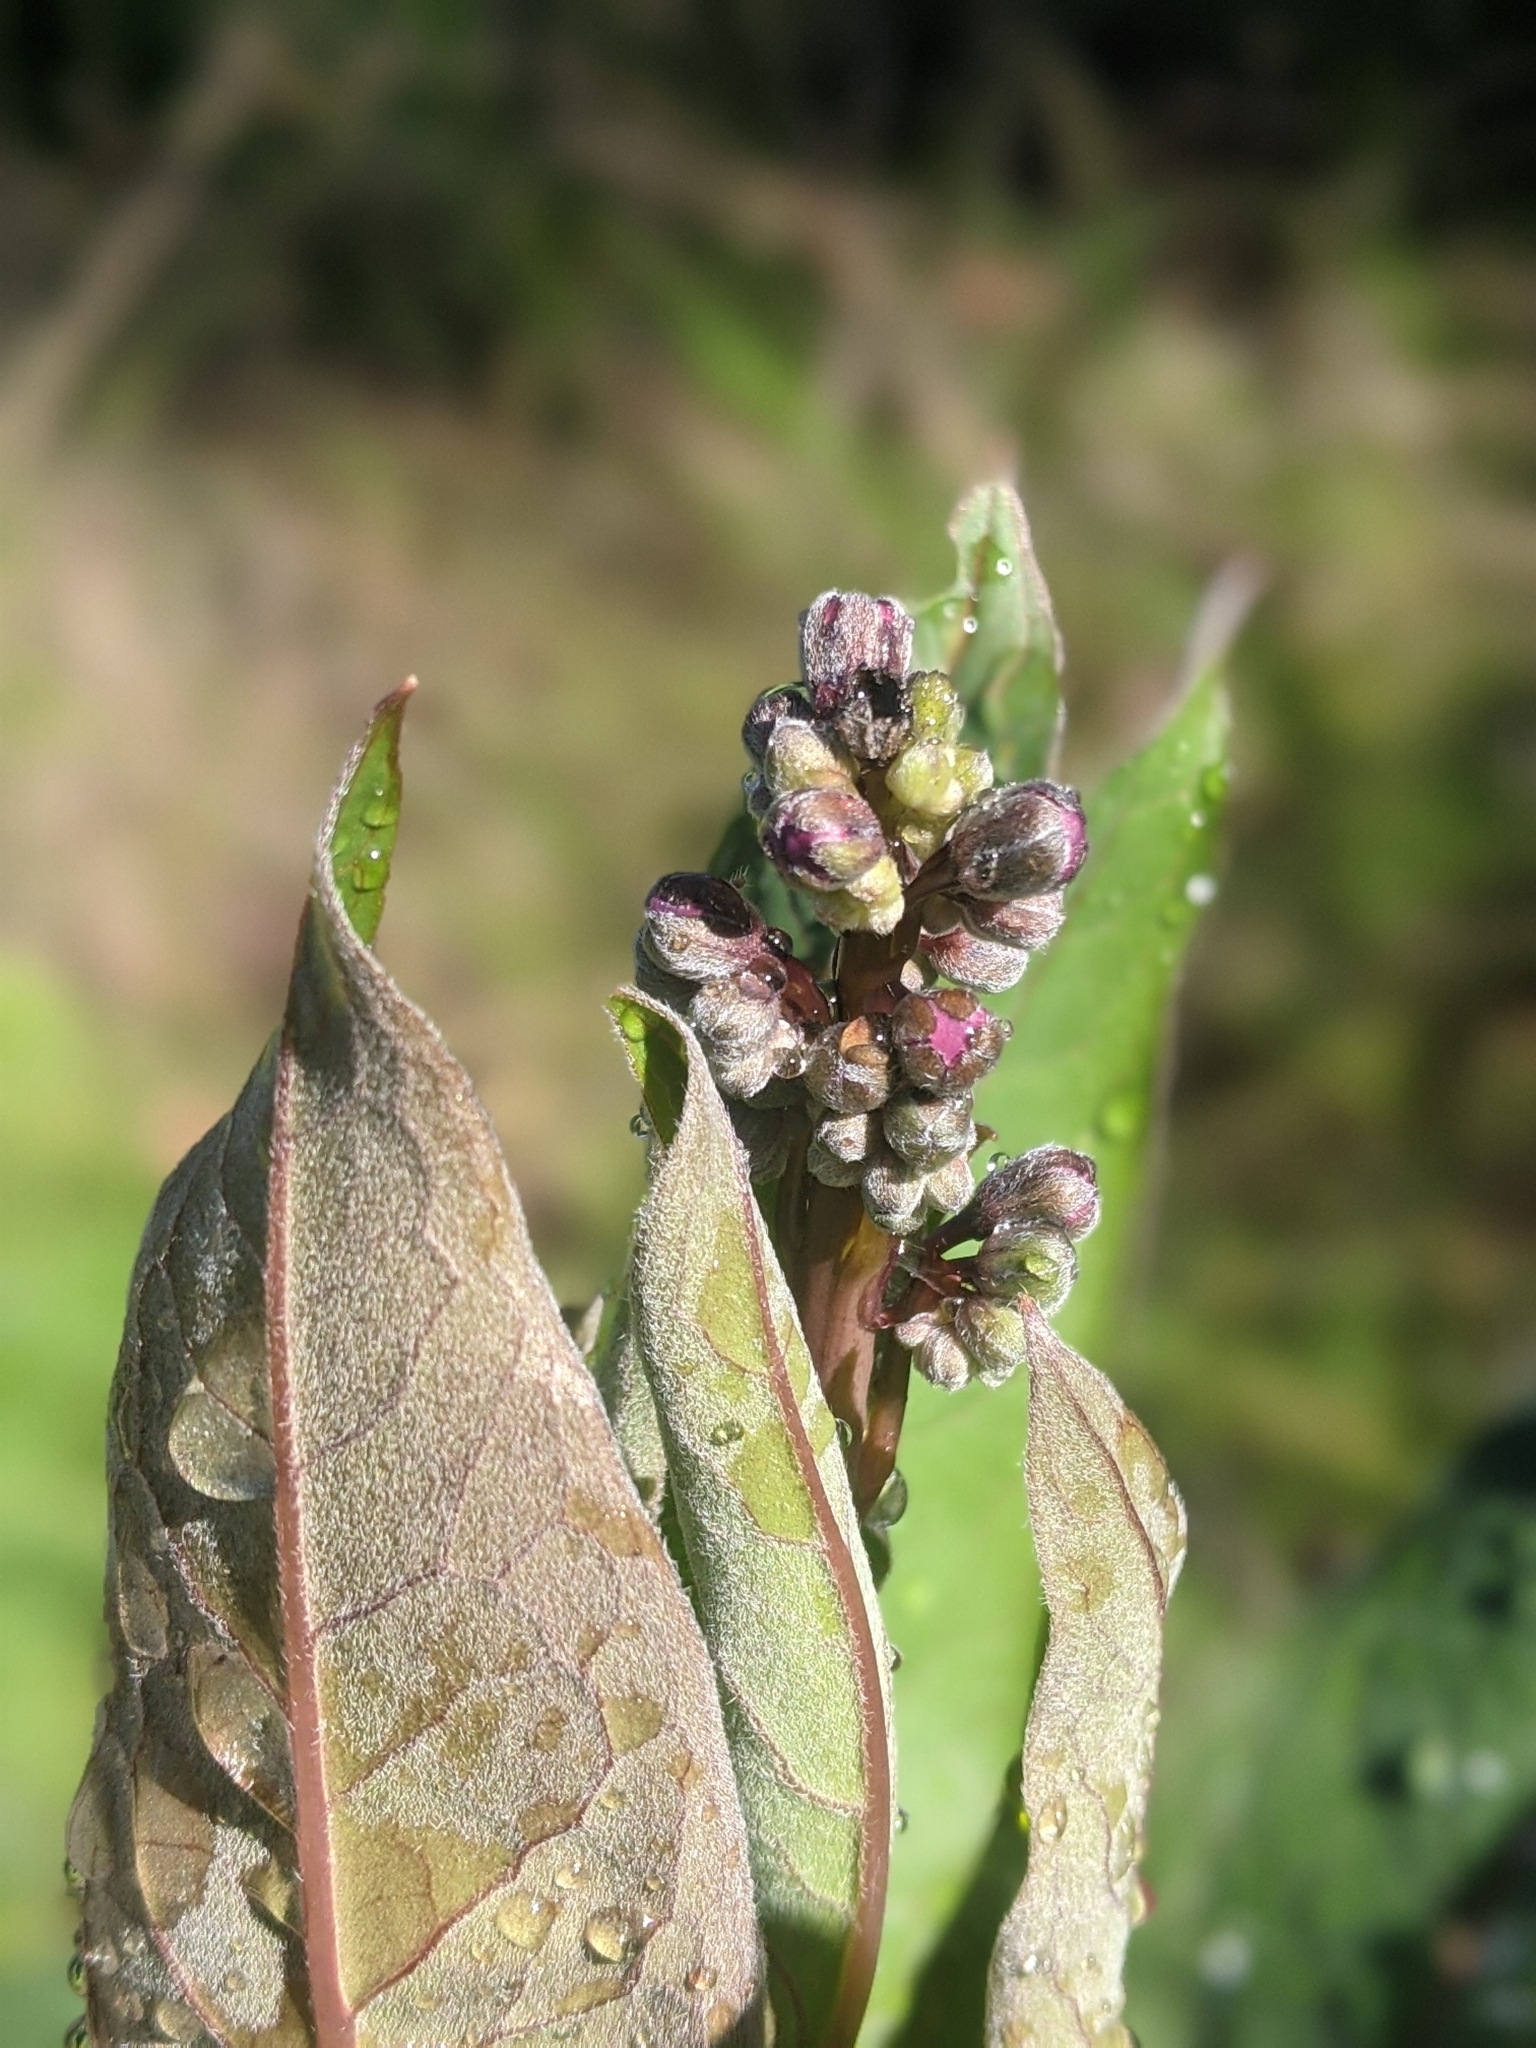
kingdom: Plantae
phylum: Tracheophyta
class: Magnoliopsida
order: Boraginales
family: Boraginaceae
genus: Adelinia
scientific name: Adelinia grande
